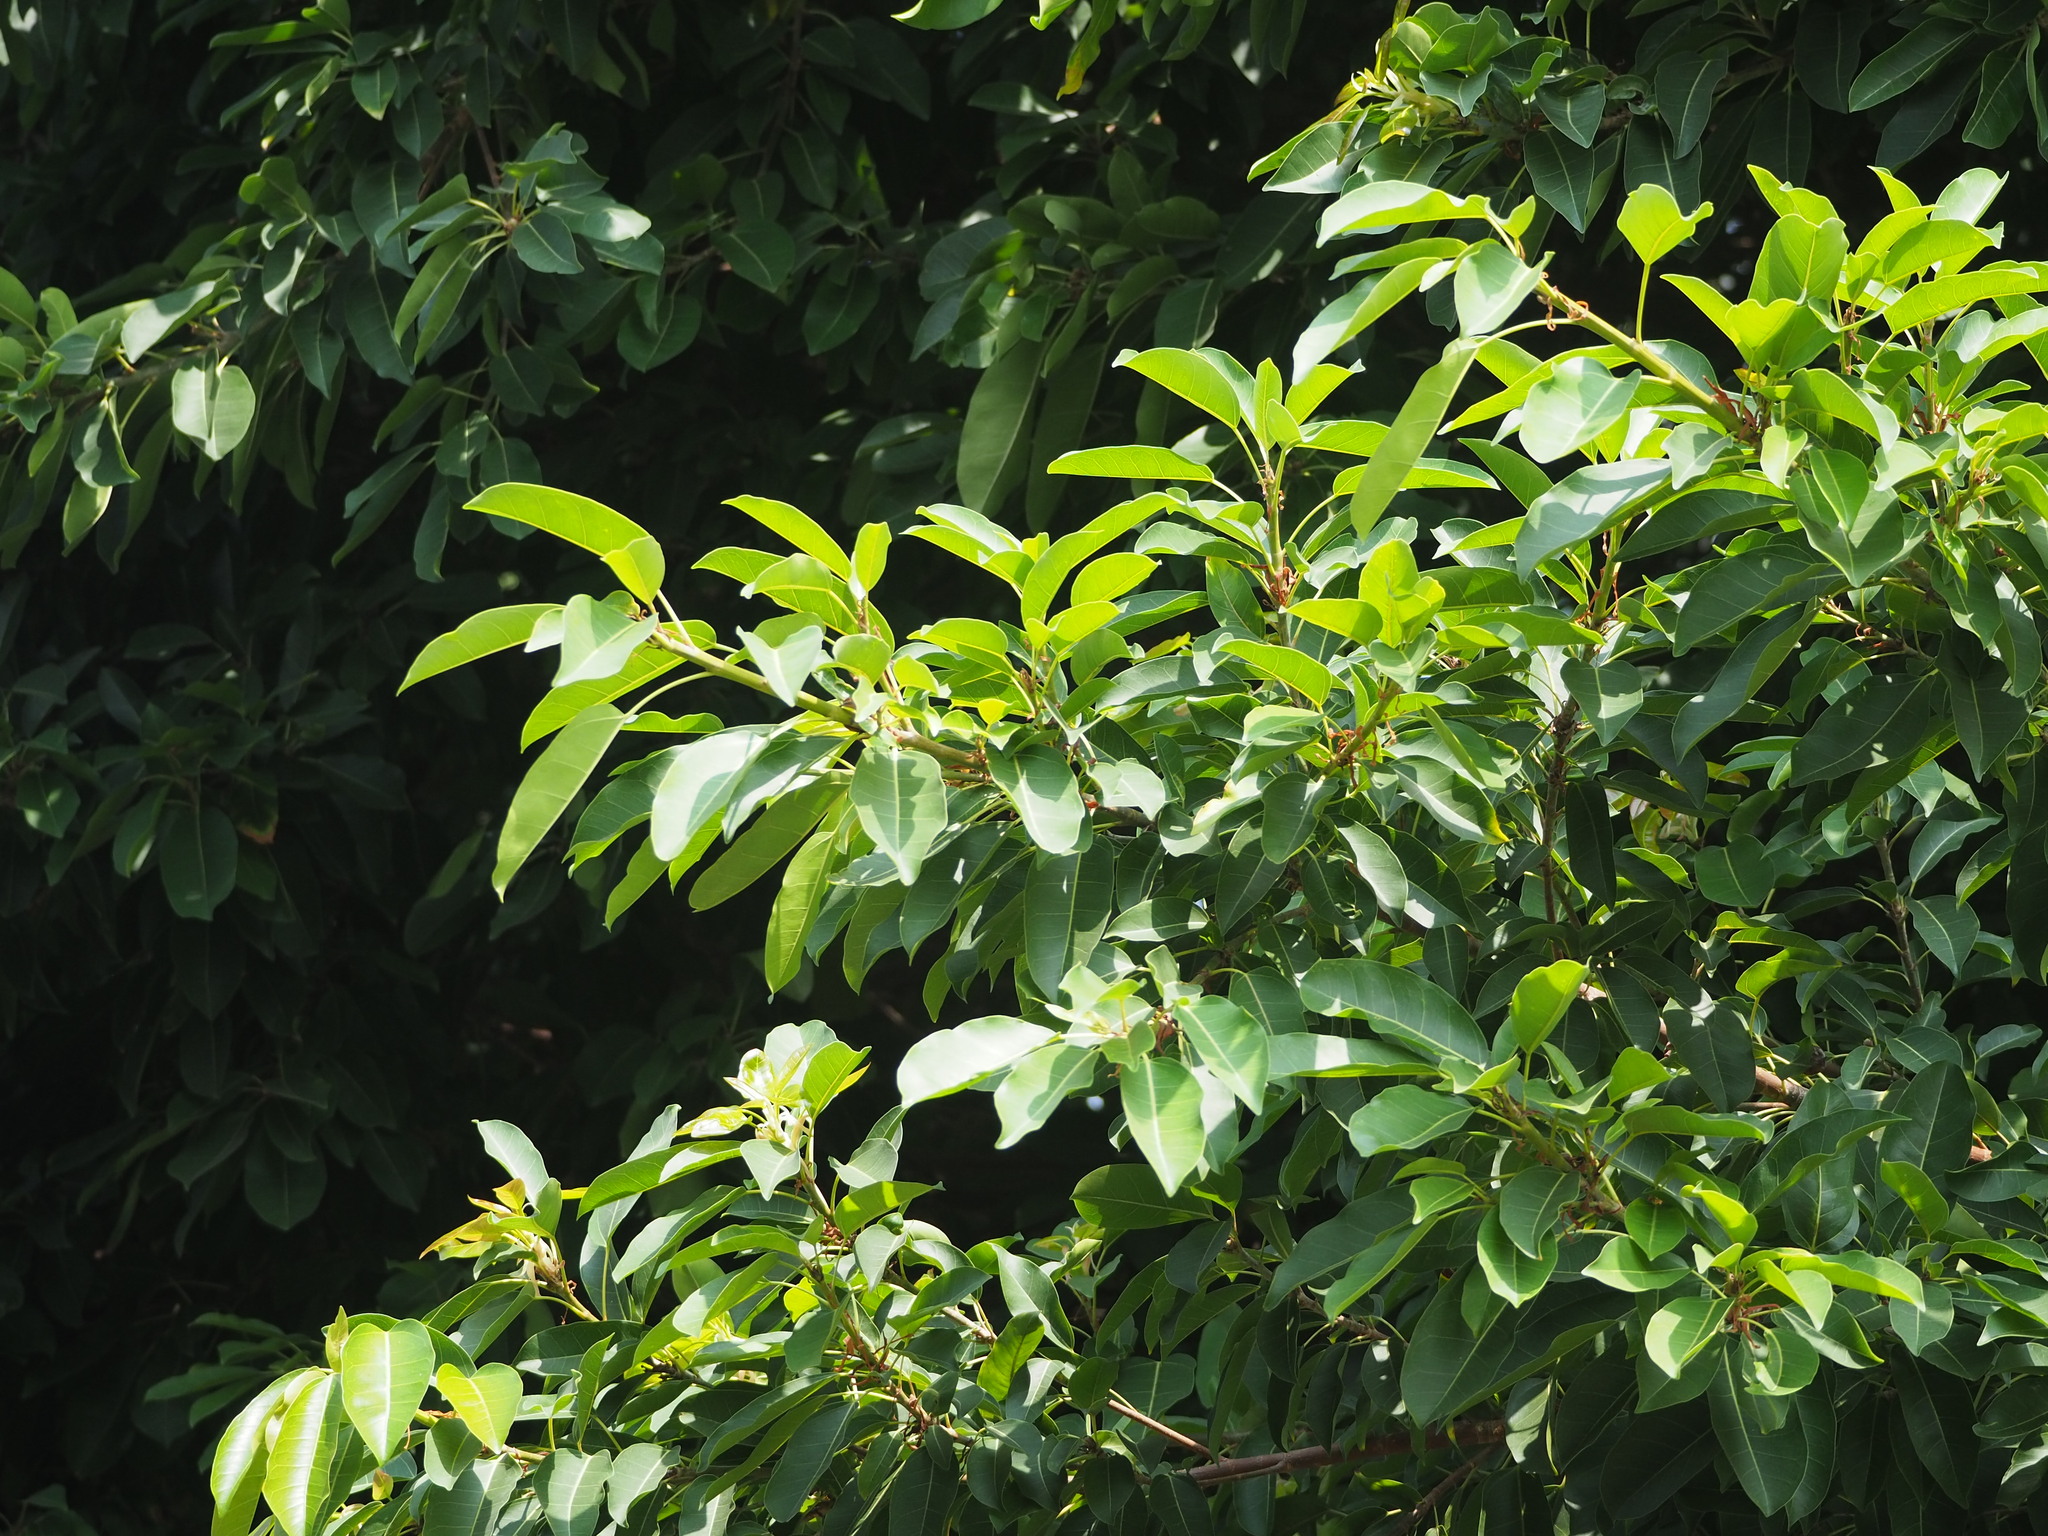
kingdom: Plantae
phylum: Tracheophyta
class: Magnoliopsida
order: Rosales
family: Moraceae
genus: Ficus
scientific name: Ficus subpisocarpa
